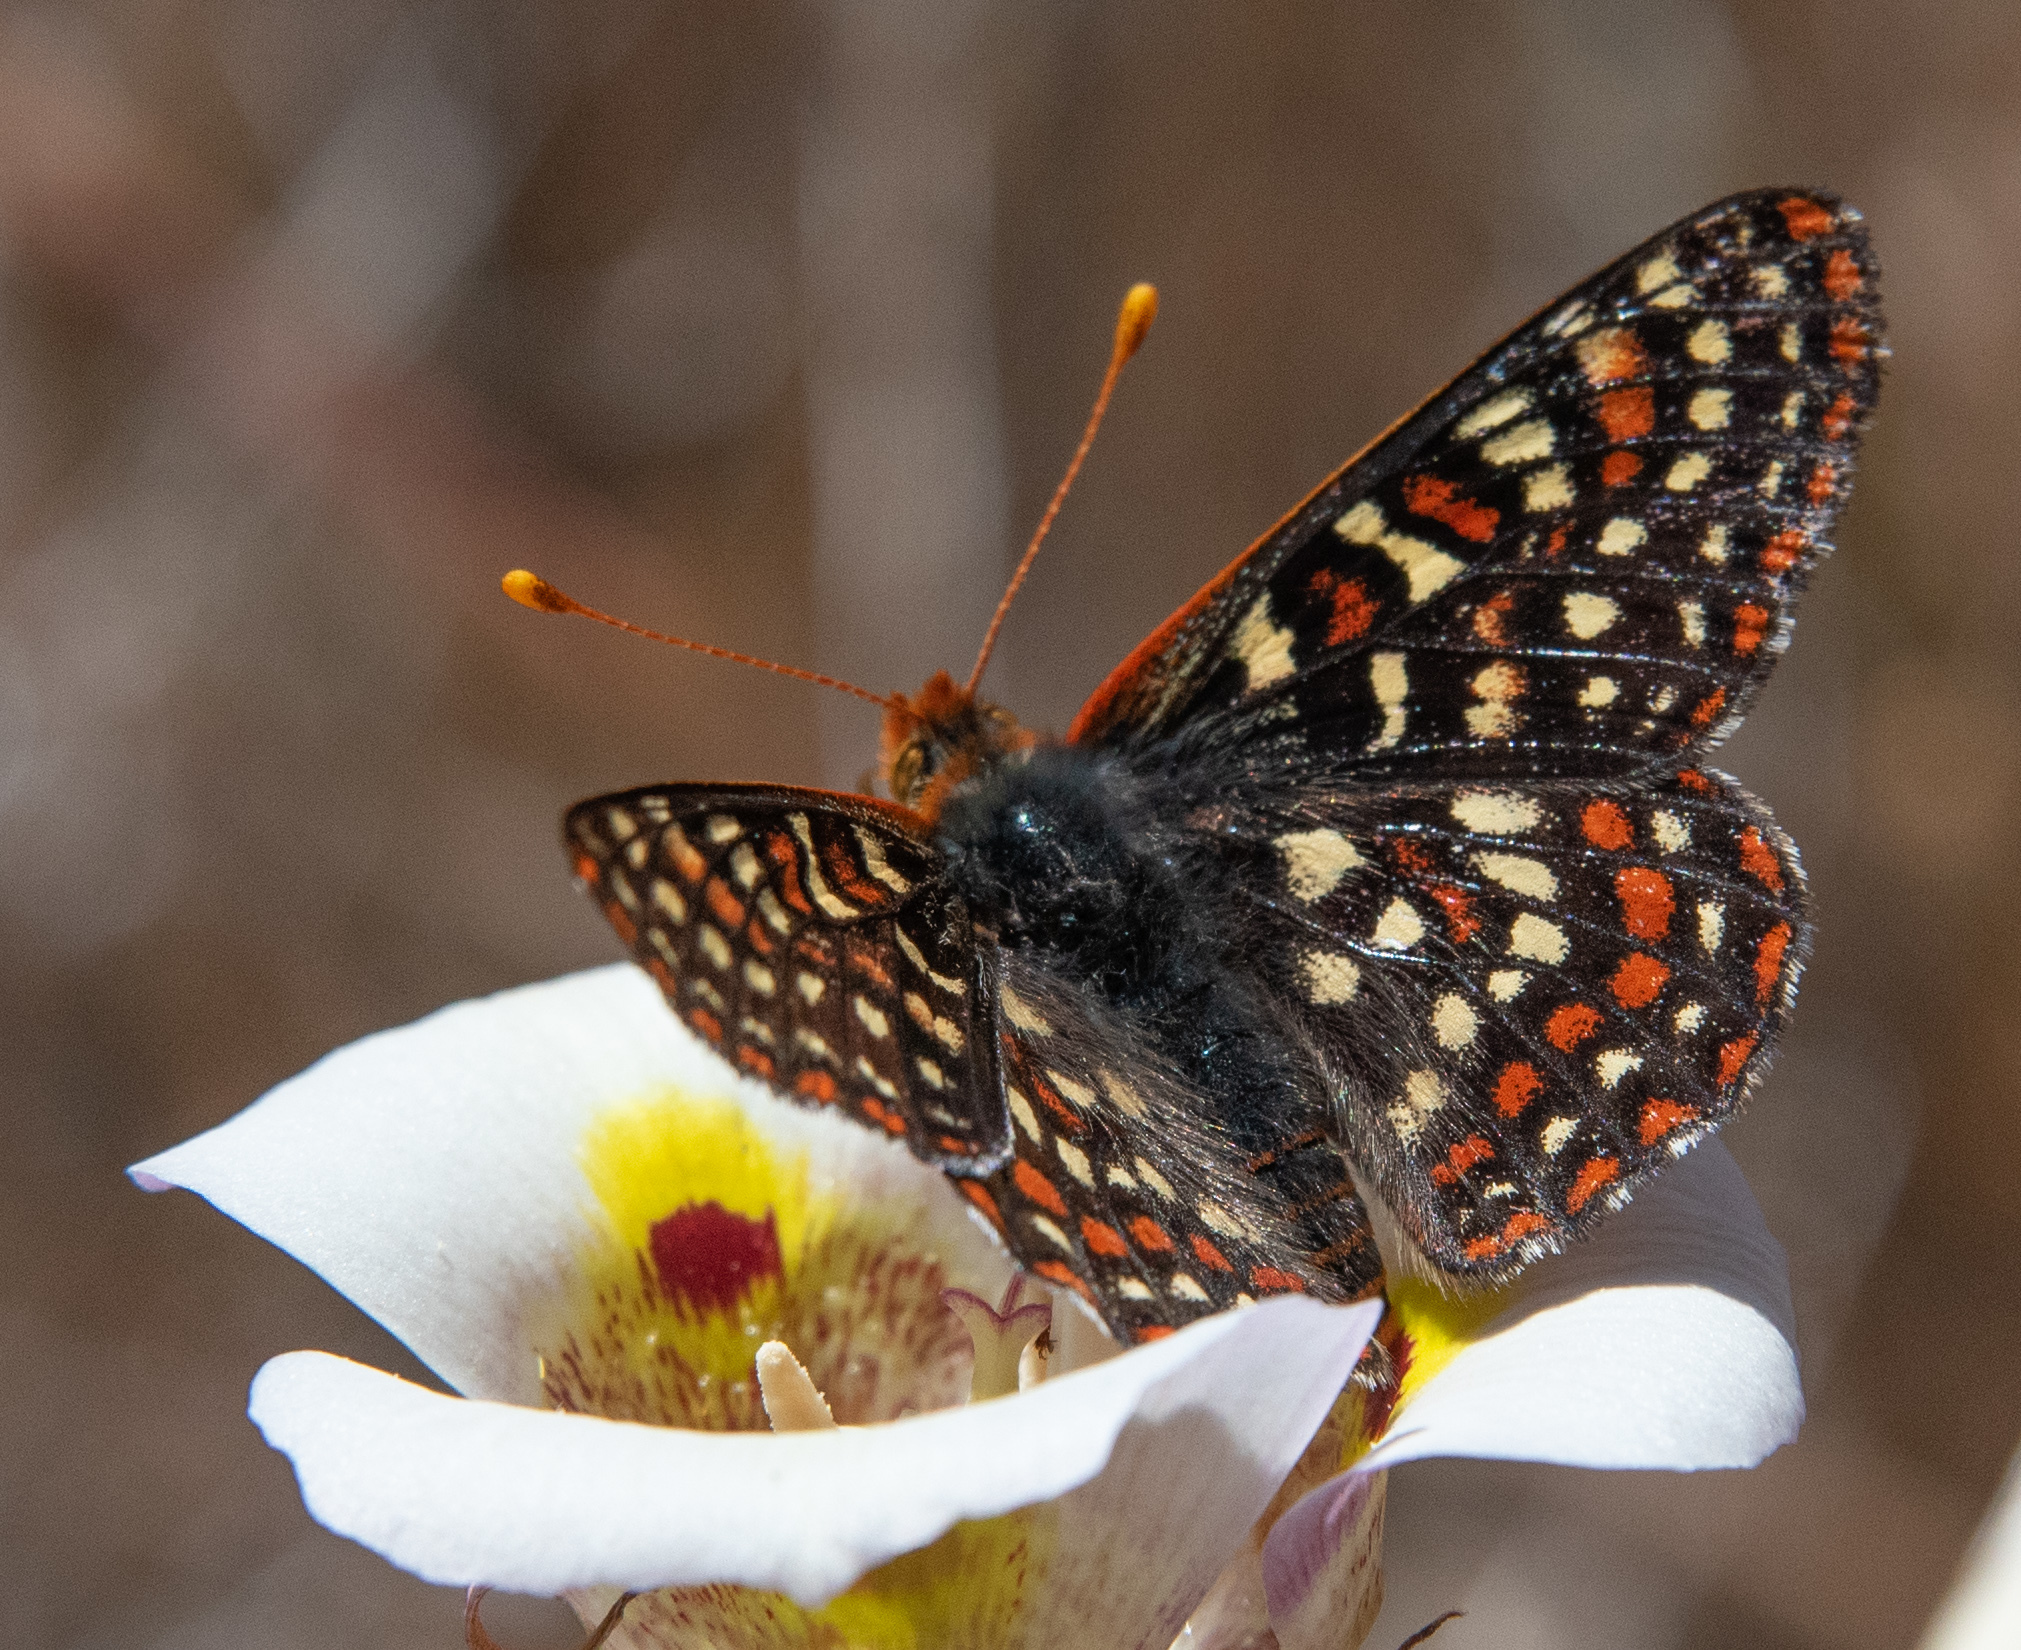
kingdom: Animalia
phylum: Arthropoda
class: Insecta
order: Lepidoptera
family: Nymphalidae
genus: Occidryas
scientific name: Occidryas editha
